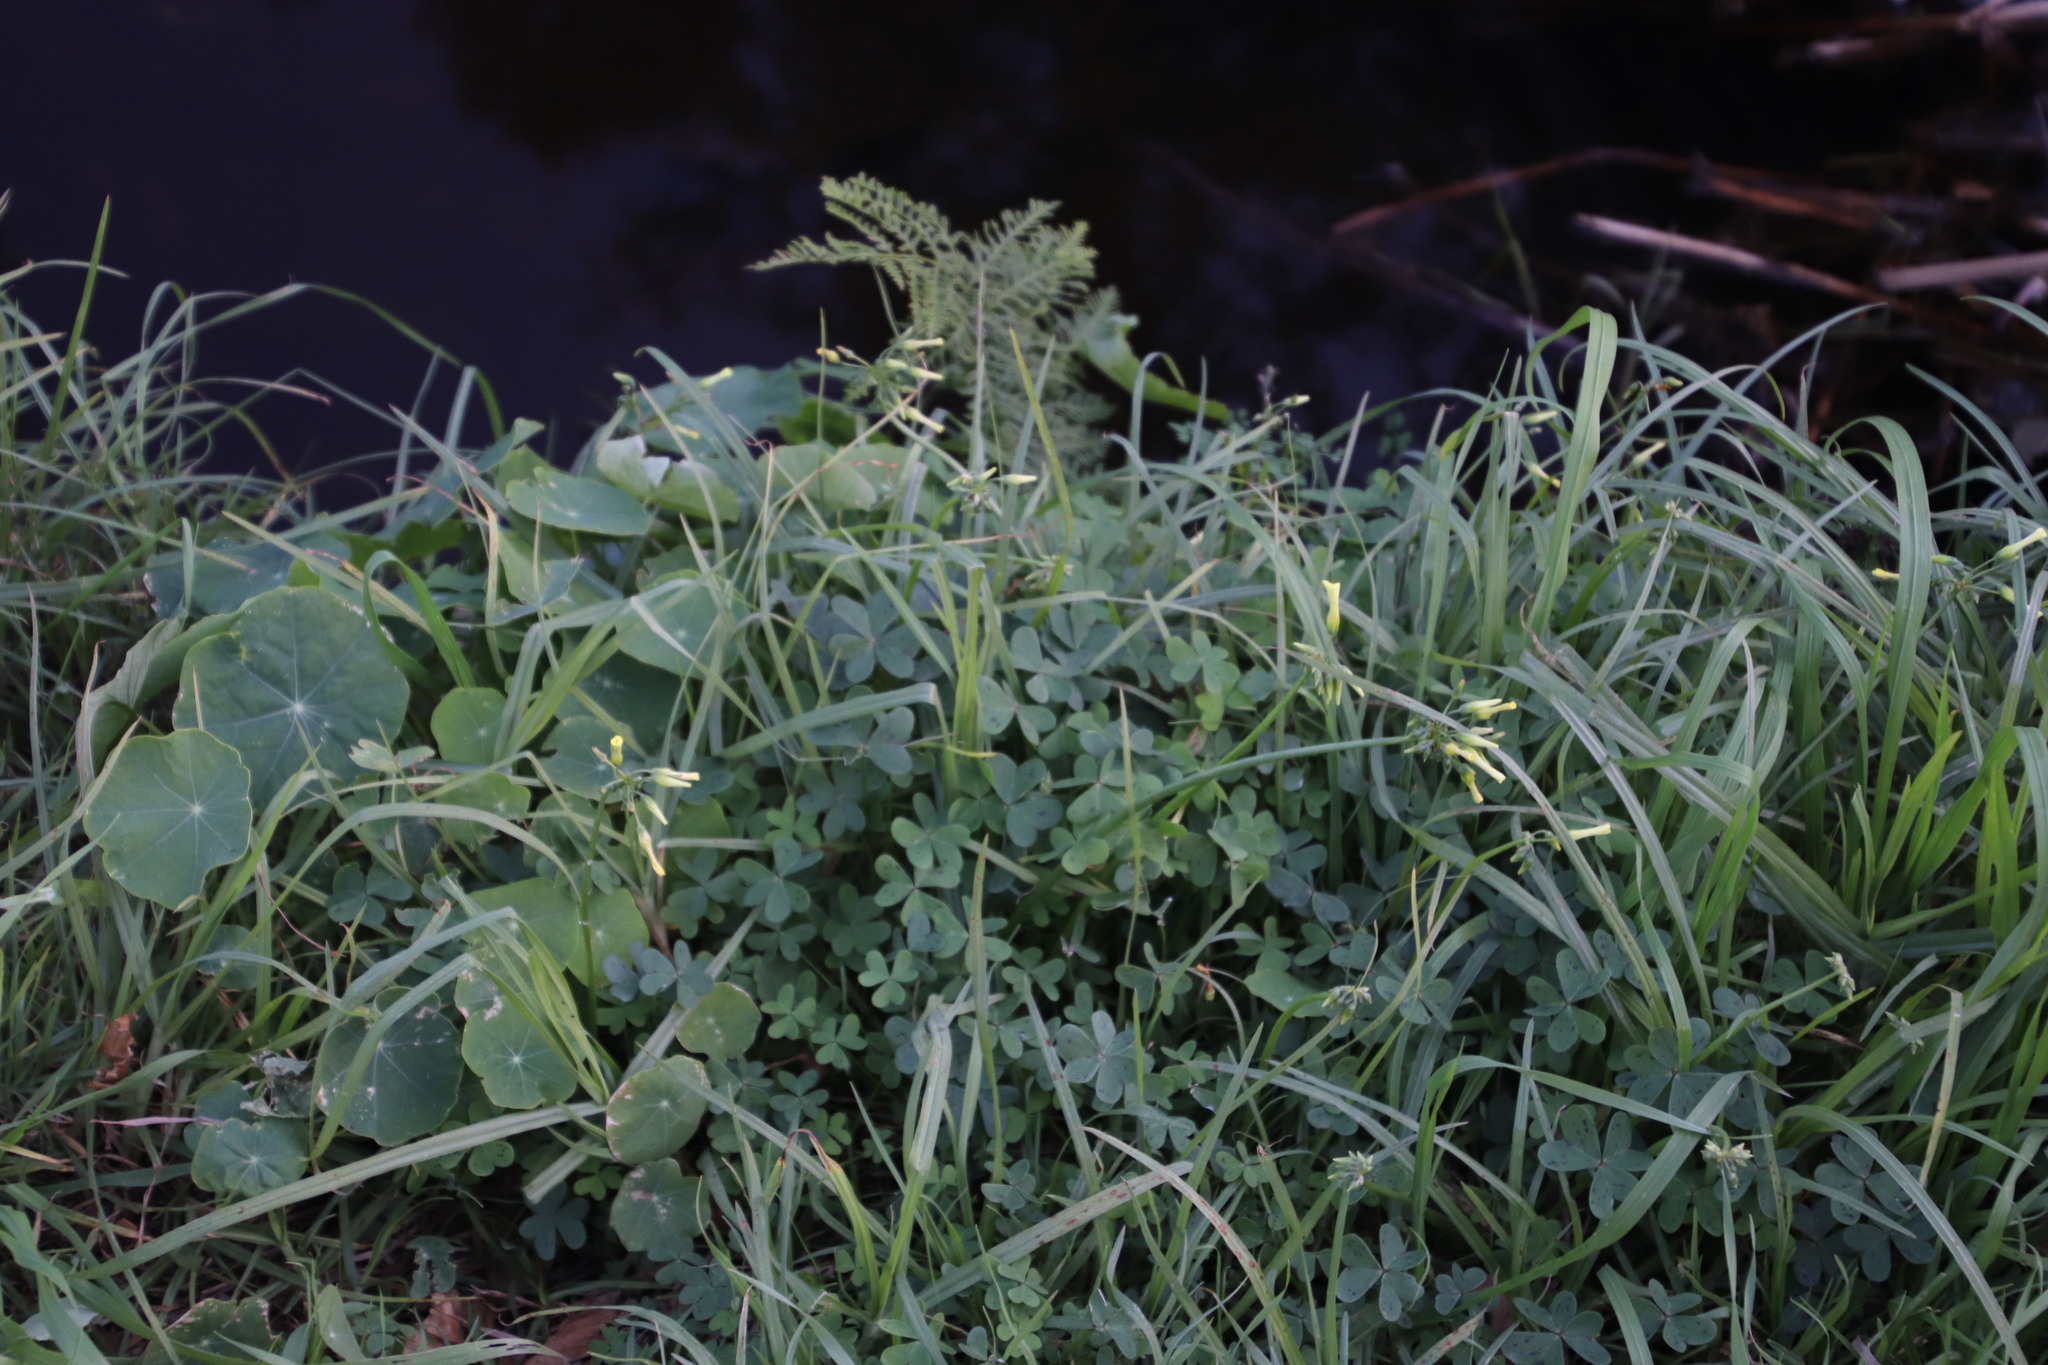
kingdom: Plantae
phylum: Tracheophyta
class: Magnoliopsida
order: Oxalidales
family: Oxalidaceae
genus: Oxalis
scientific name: Oxalis pes-caprae
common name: Bermuda-buttercup
